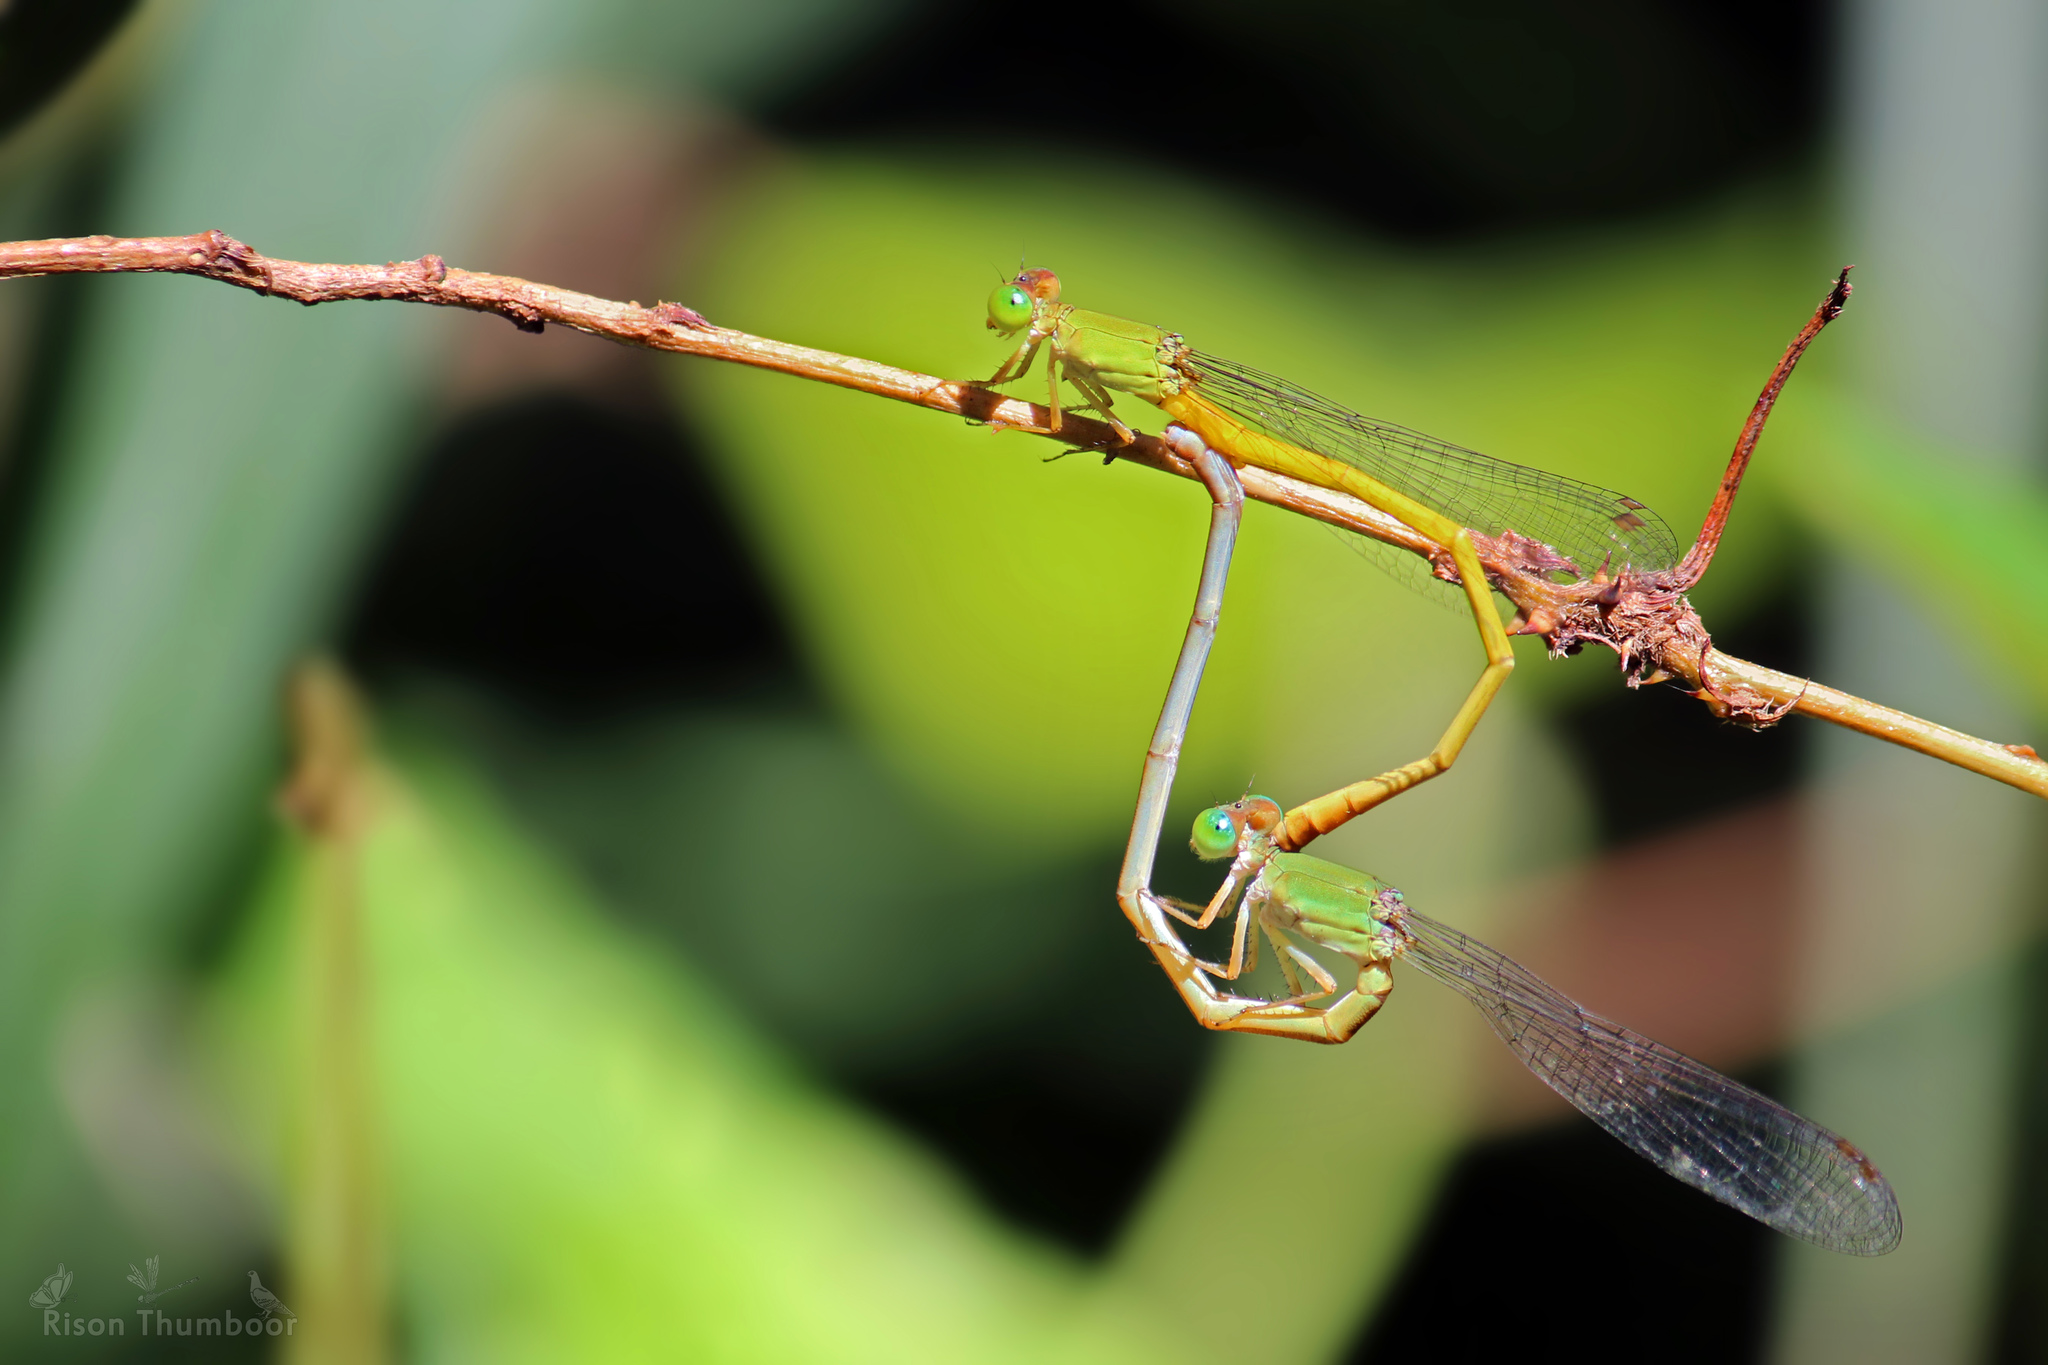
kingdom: Animalia
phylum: Arthropoda
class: Insecta
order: Odonata
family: Coenagrionidae
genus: Ceriagrion
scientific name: Ceriagrion coromandelianum
